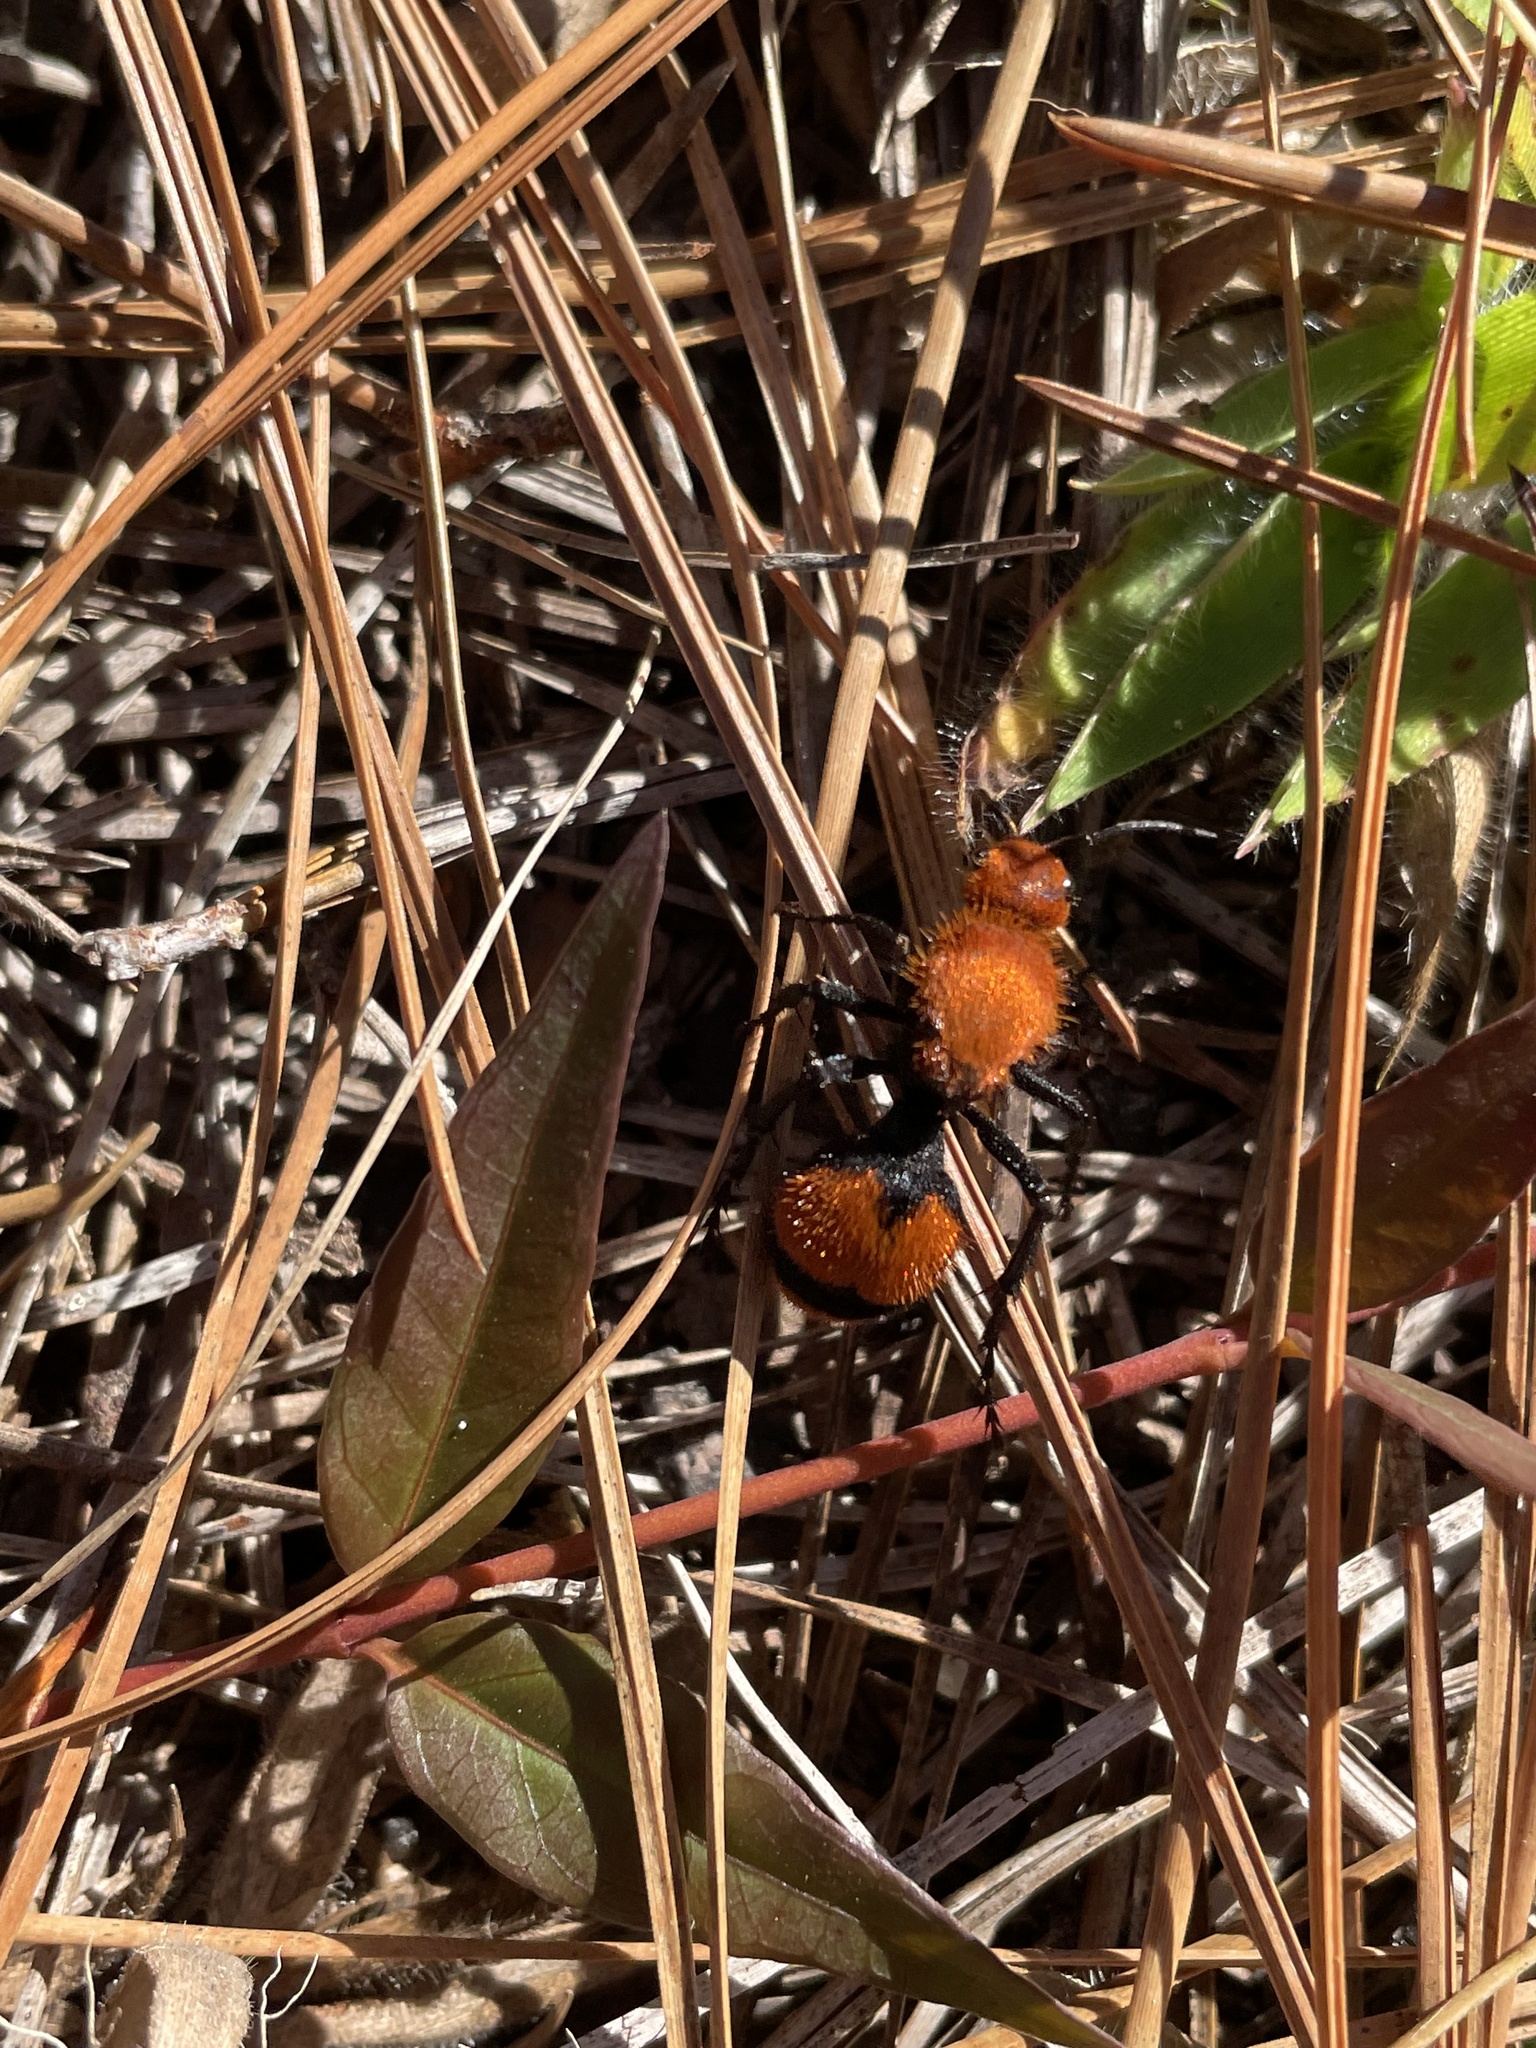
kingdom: Animalia
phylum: Arthropoda
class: Insecta
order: Hymenoptera
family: Mutillidae
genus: Dasymutilla
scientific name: Dasymutilla occidentalis
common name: Common eastern velvet ant
